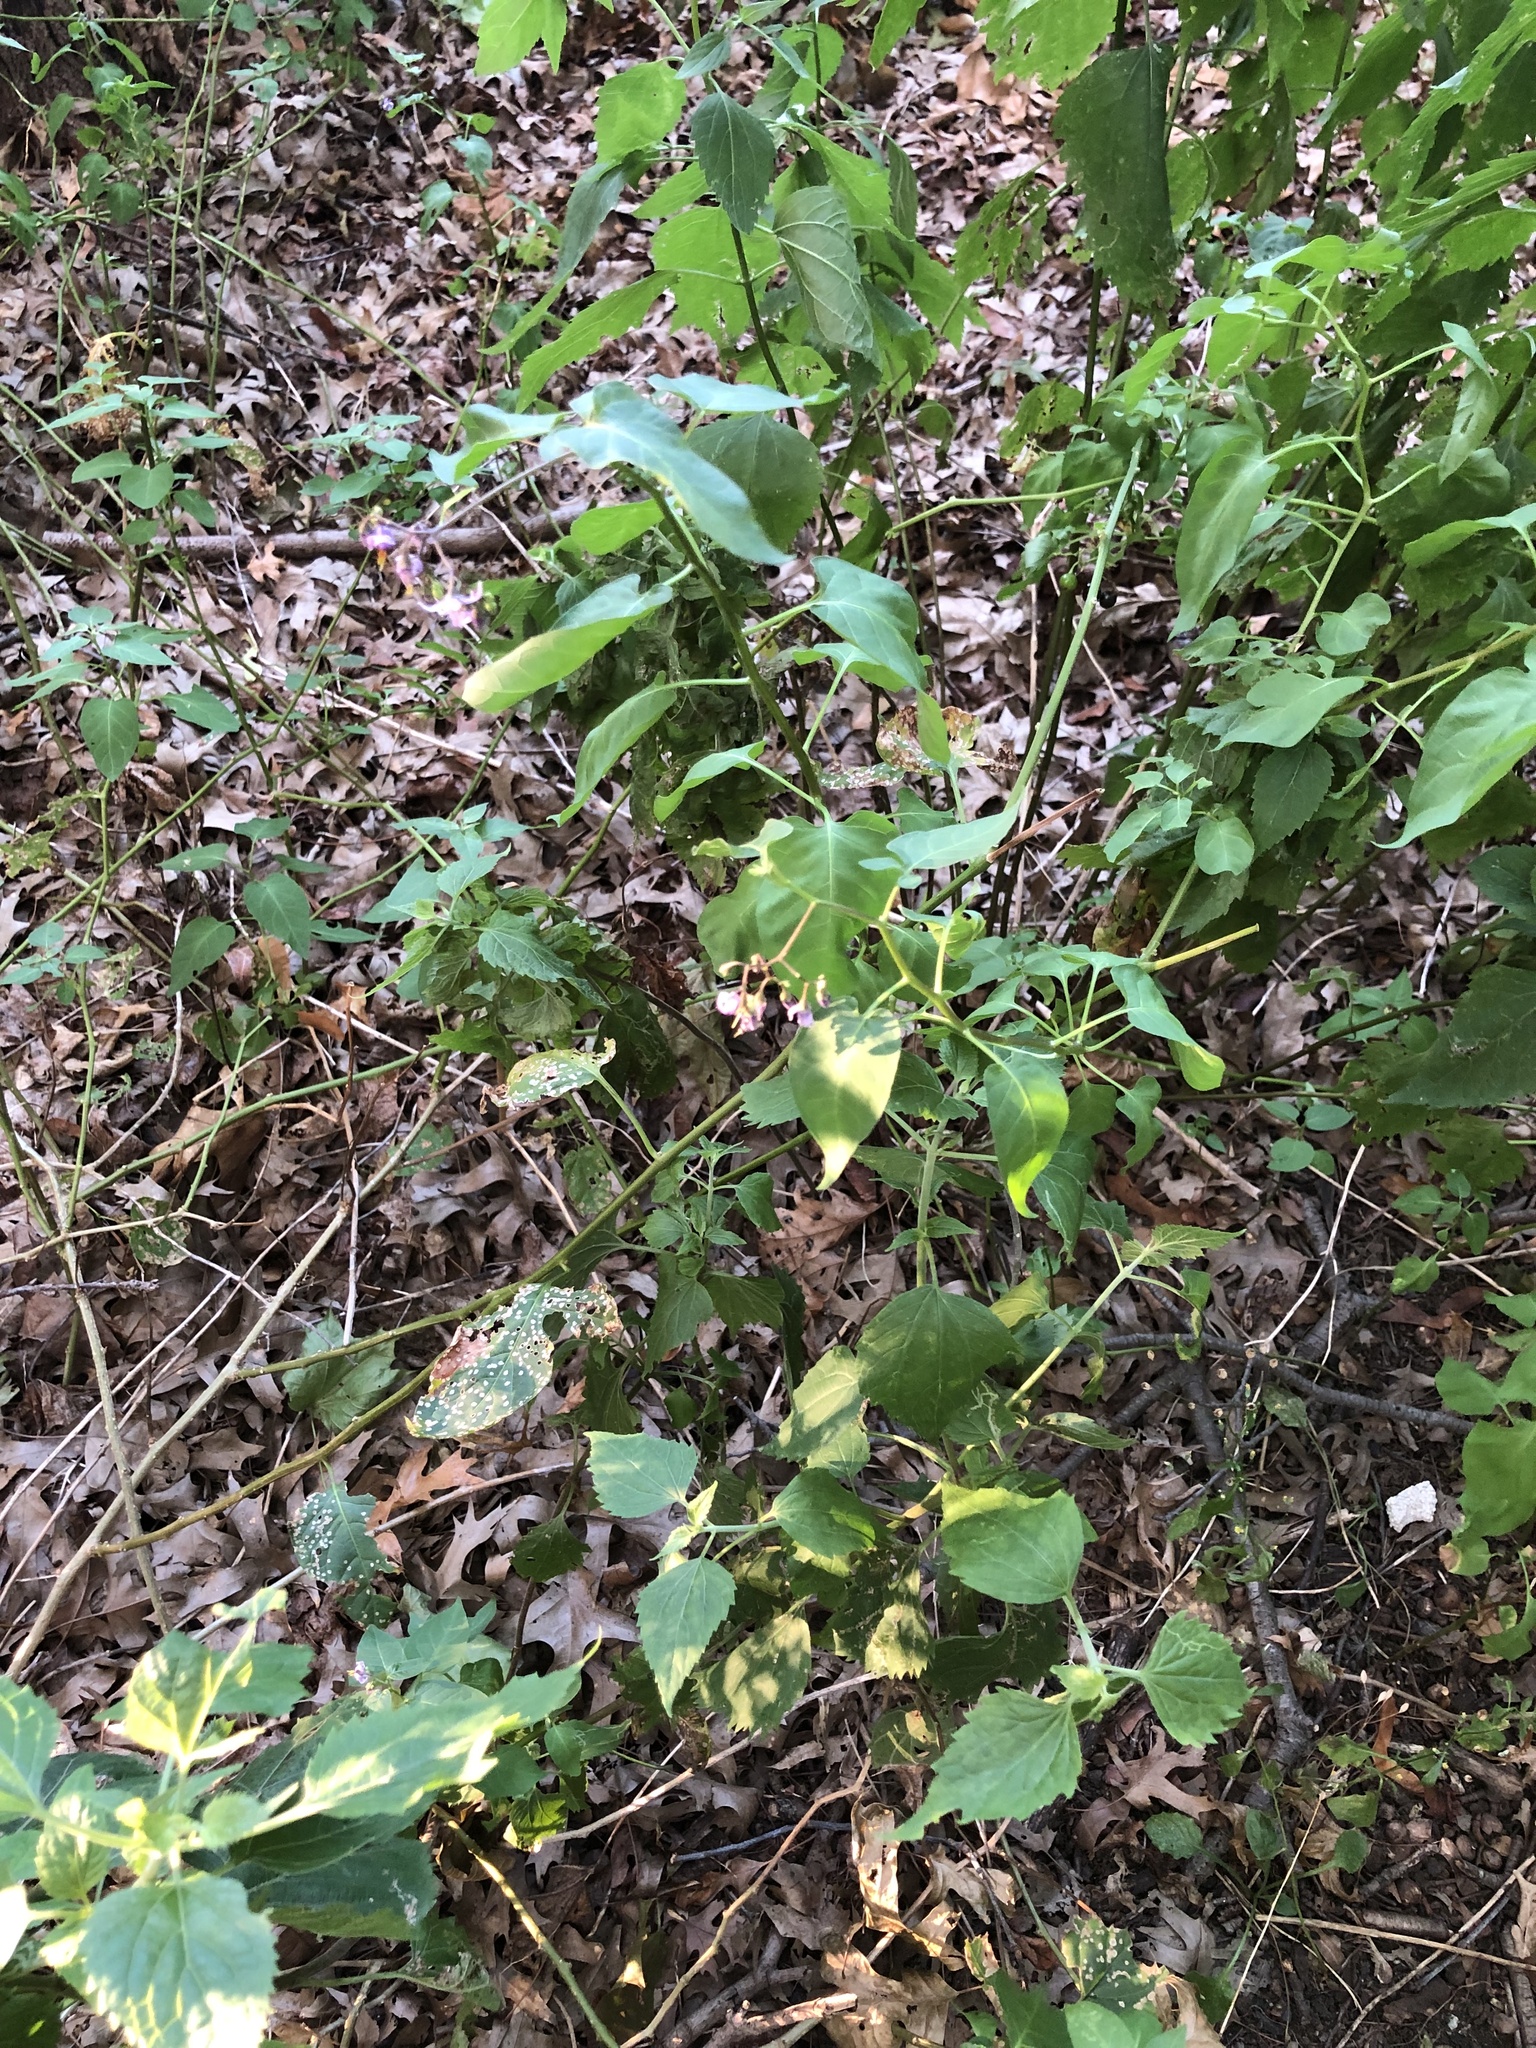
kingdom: Plantae
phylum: Tracheophyta
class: Magnoliopsida
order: Solanales
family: Solanaceae
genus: Solanum
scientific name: Solanum dulcamara
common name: Climbing nightshade
